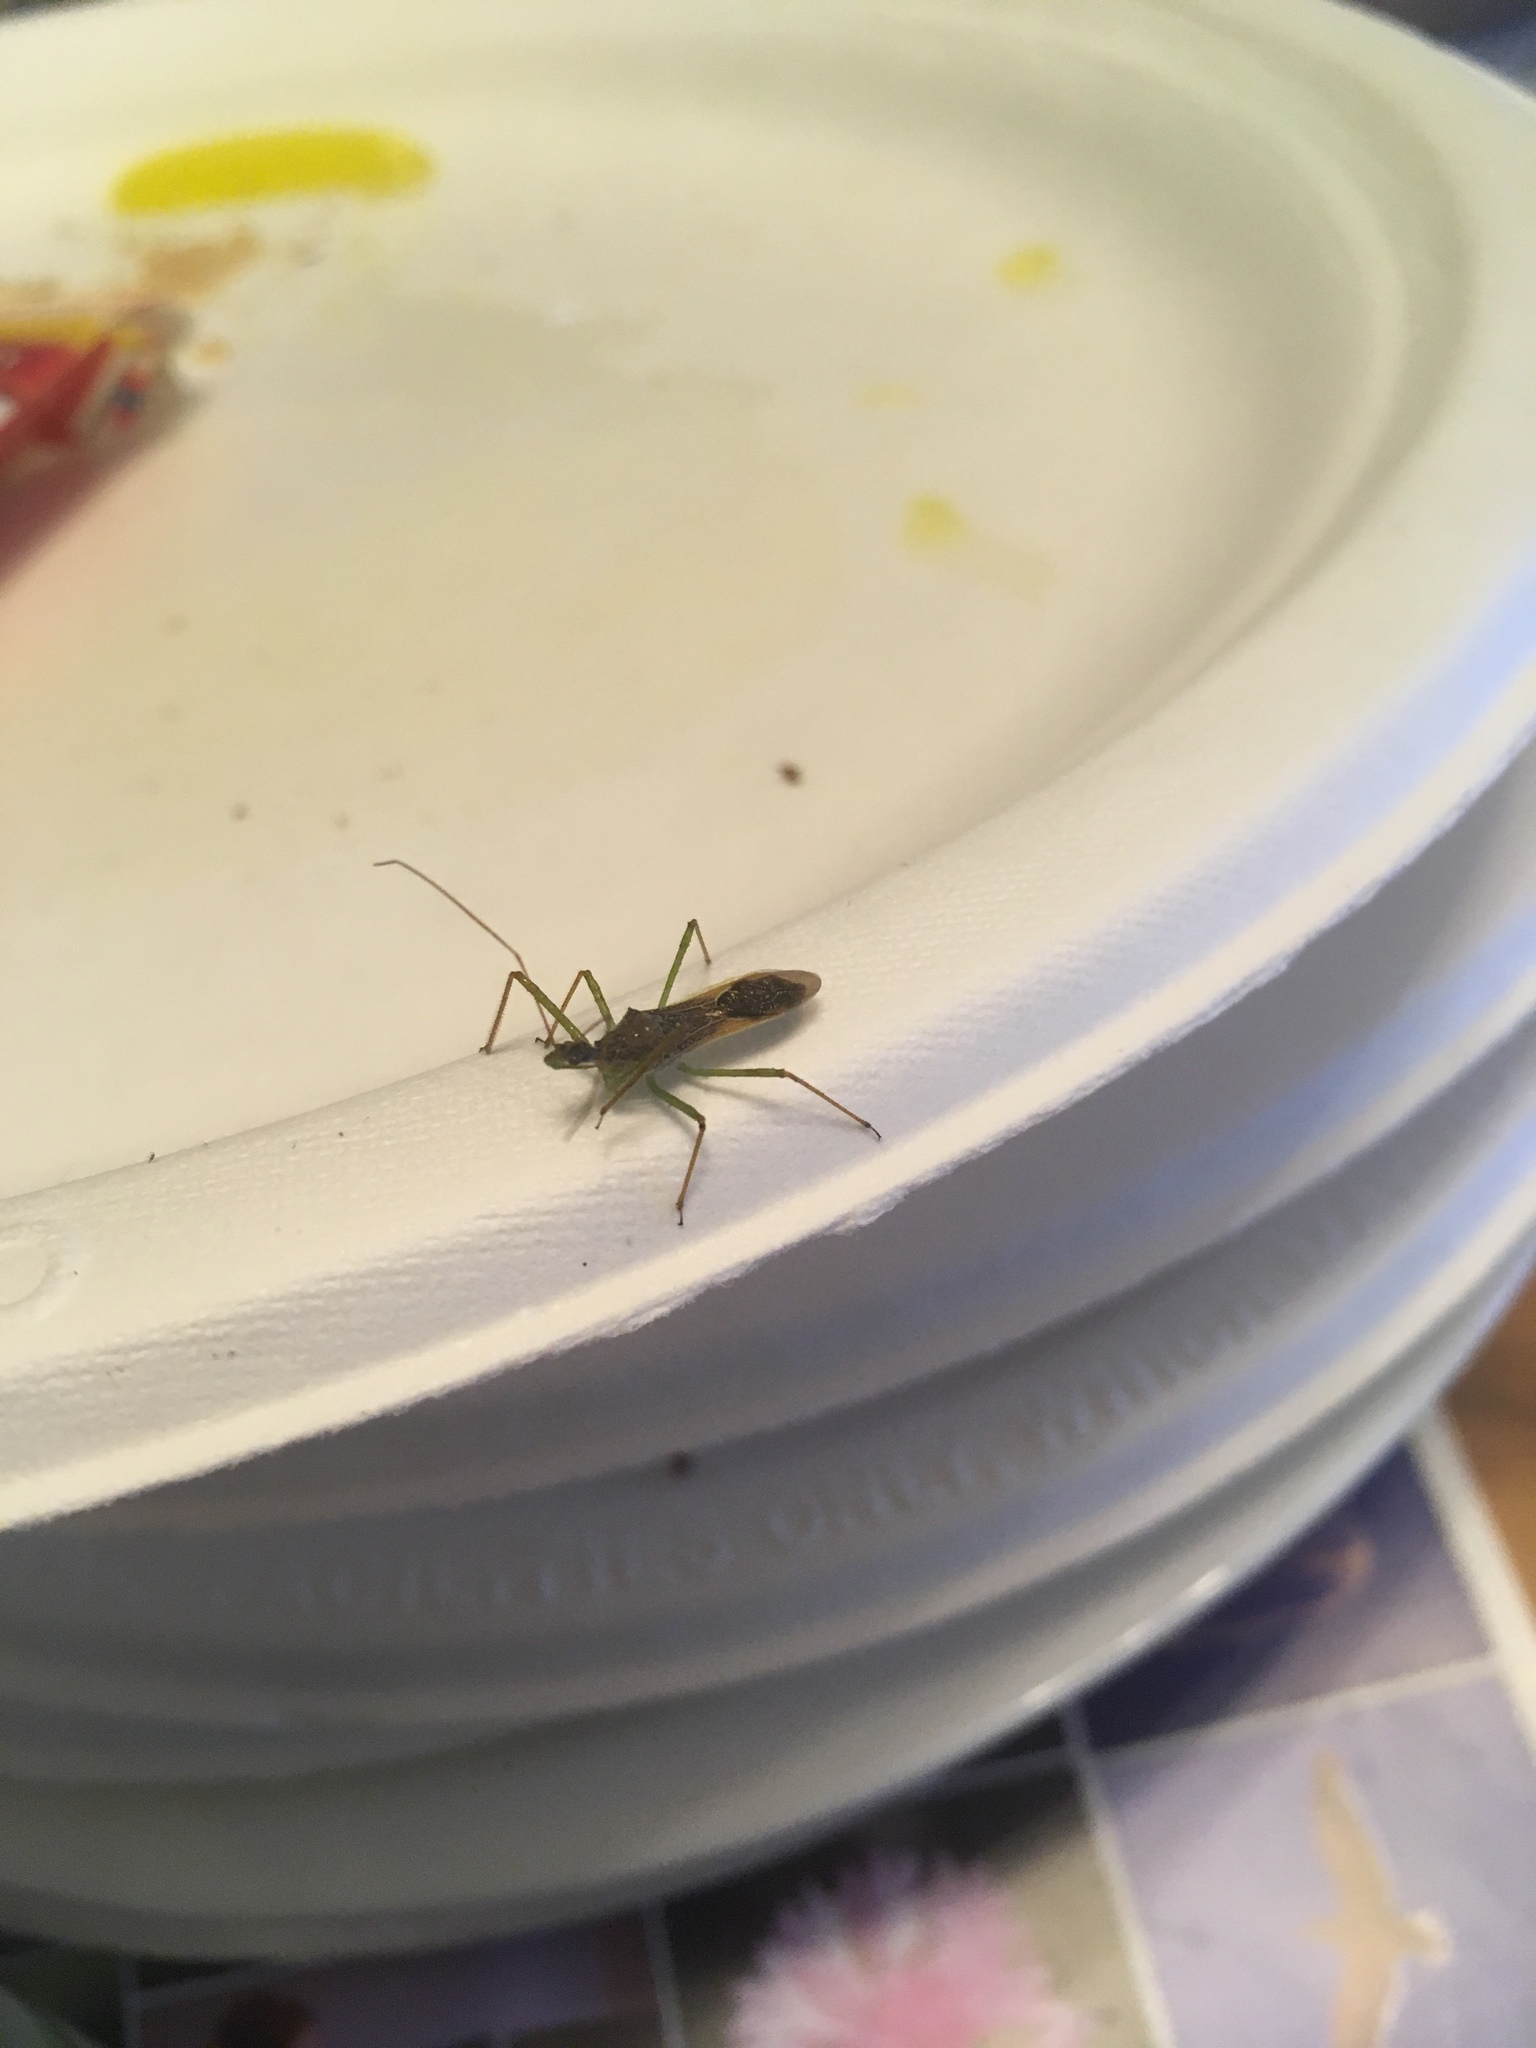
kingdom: Animalia
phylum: Arthropoda
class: Insecta
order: Hemiptera
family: Reduviidae
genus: Zelus
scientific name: Zelus luridus
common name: Pale green assassin bug
